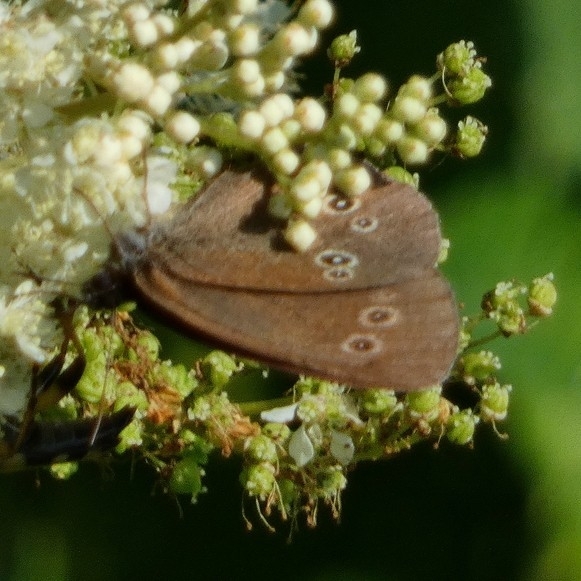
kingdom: Animalia
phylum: Arthropoda
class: Insecta
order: Lepidoptera
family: Nymphalidae
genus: Aphantopus
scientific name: Aphantopus hyperantus
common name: Ringlet
